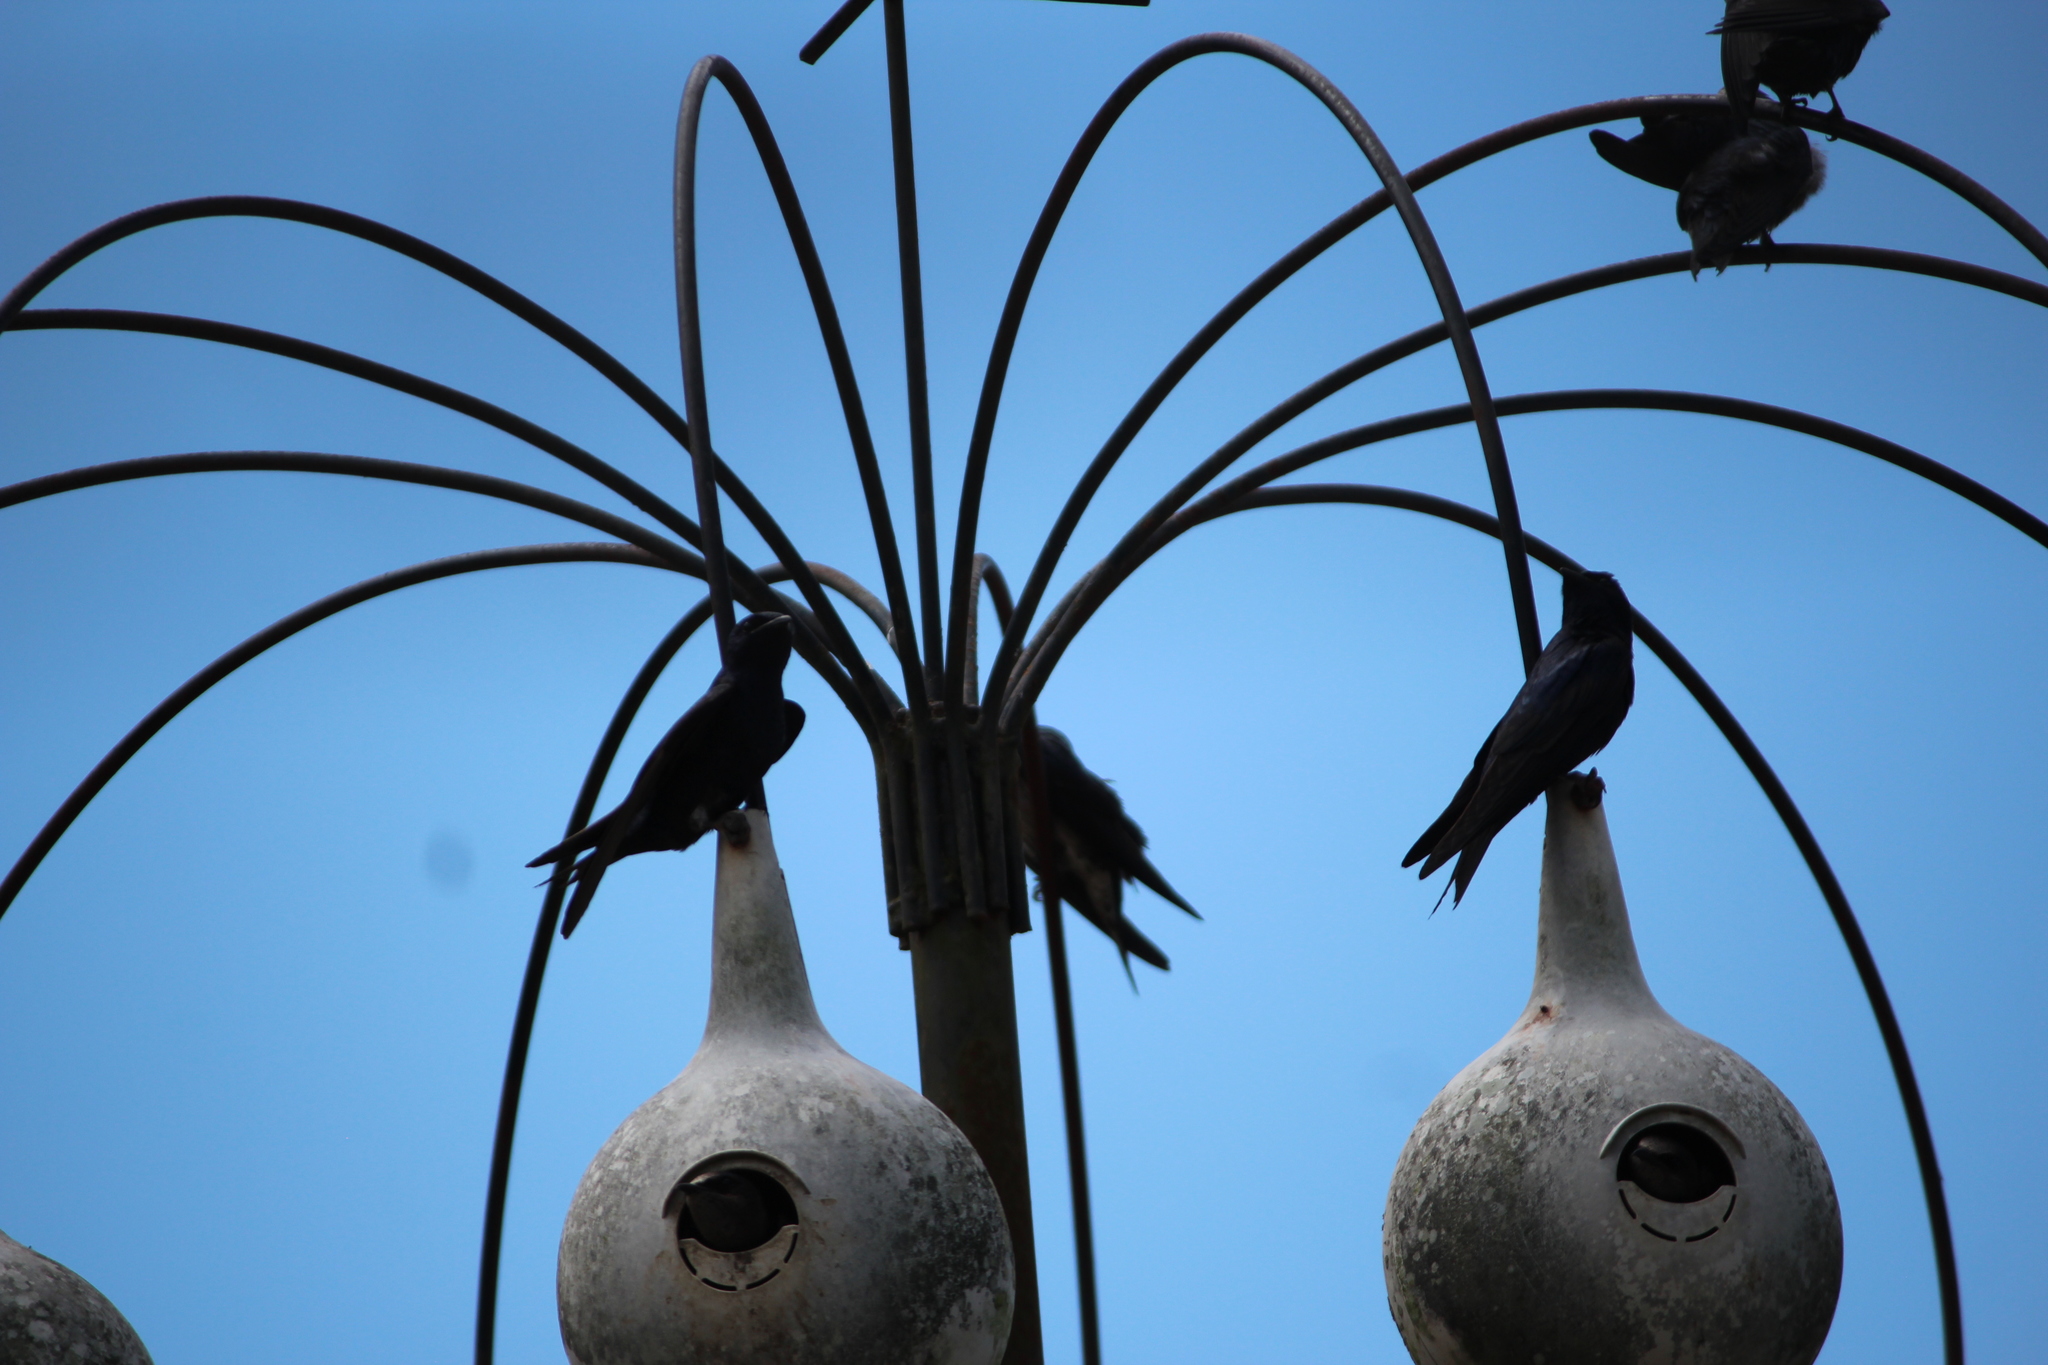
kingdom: Animalia
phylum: Chordata
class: Aves
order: Passeriformes
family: Hirundinidae
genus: Progne
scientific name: Progne subis
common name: Purple martin
